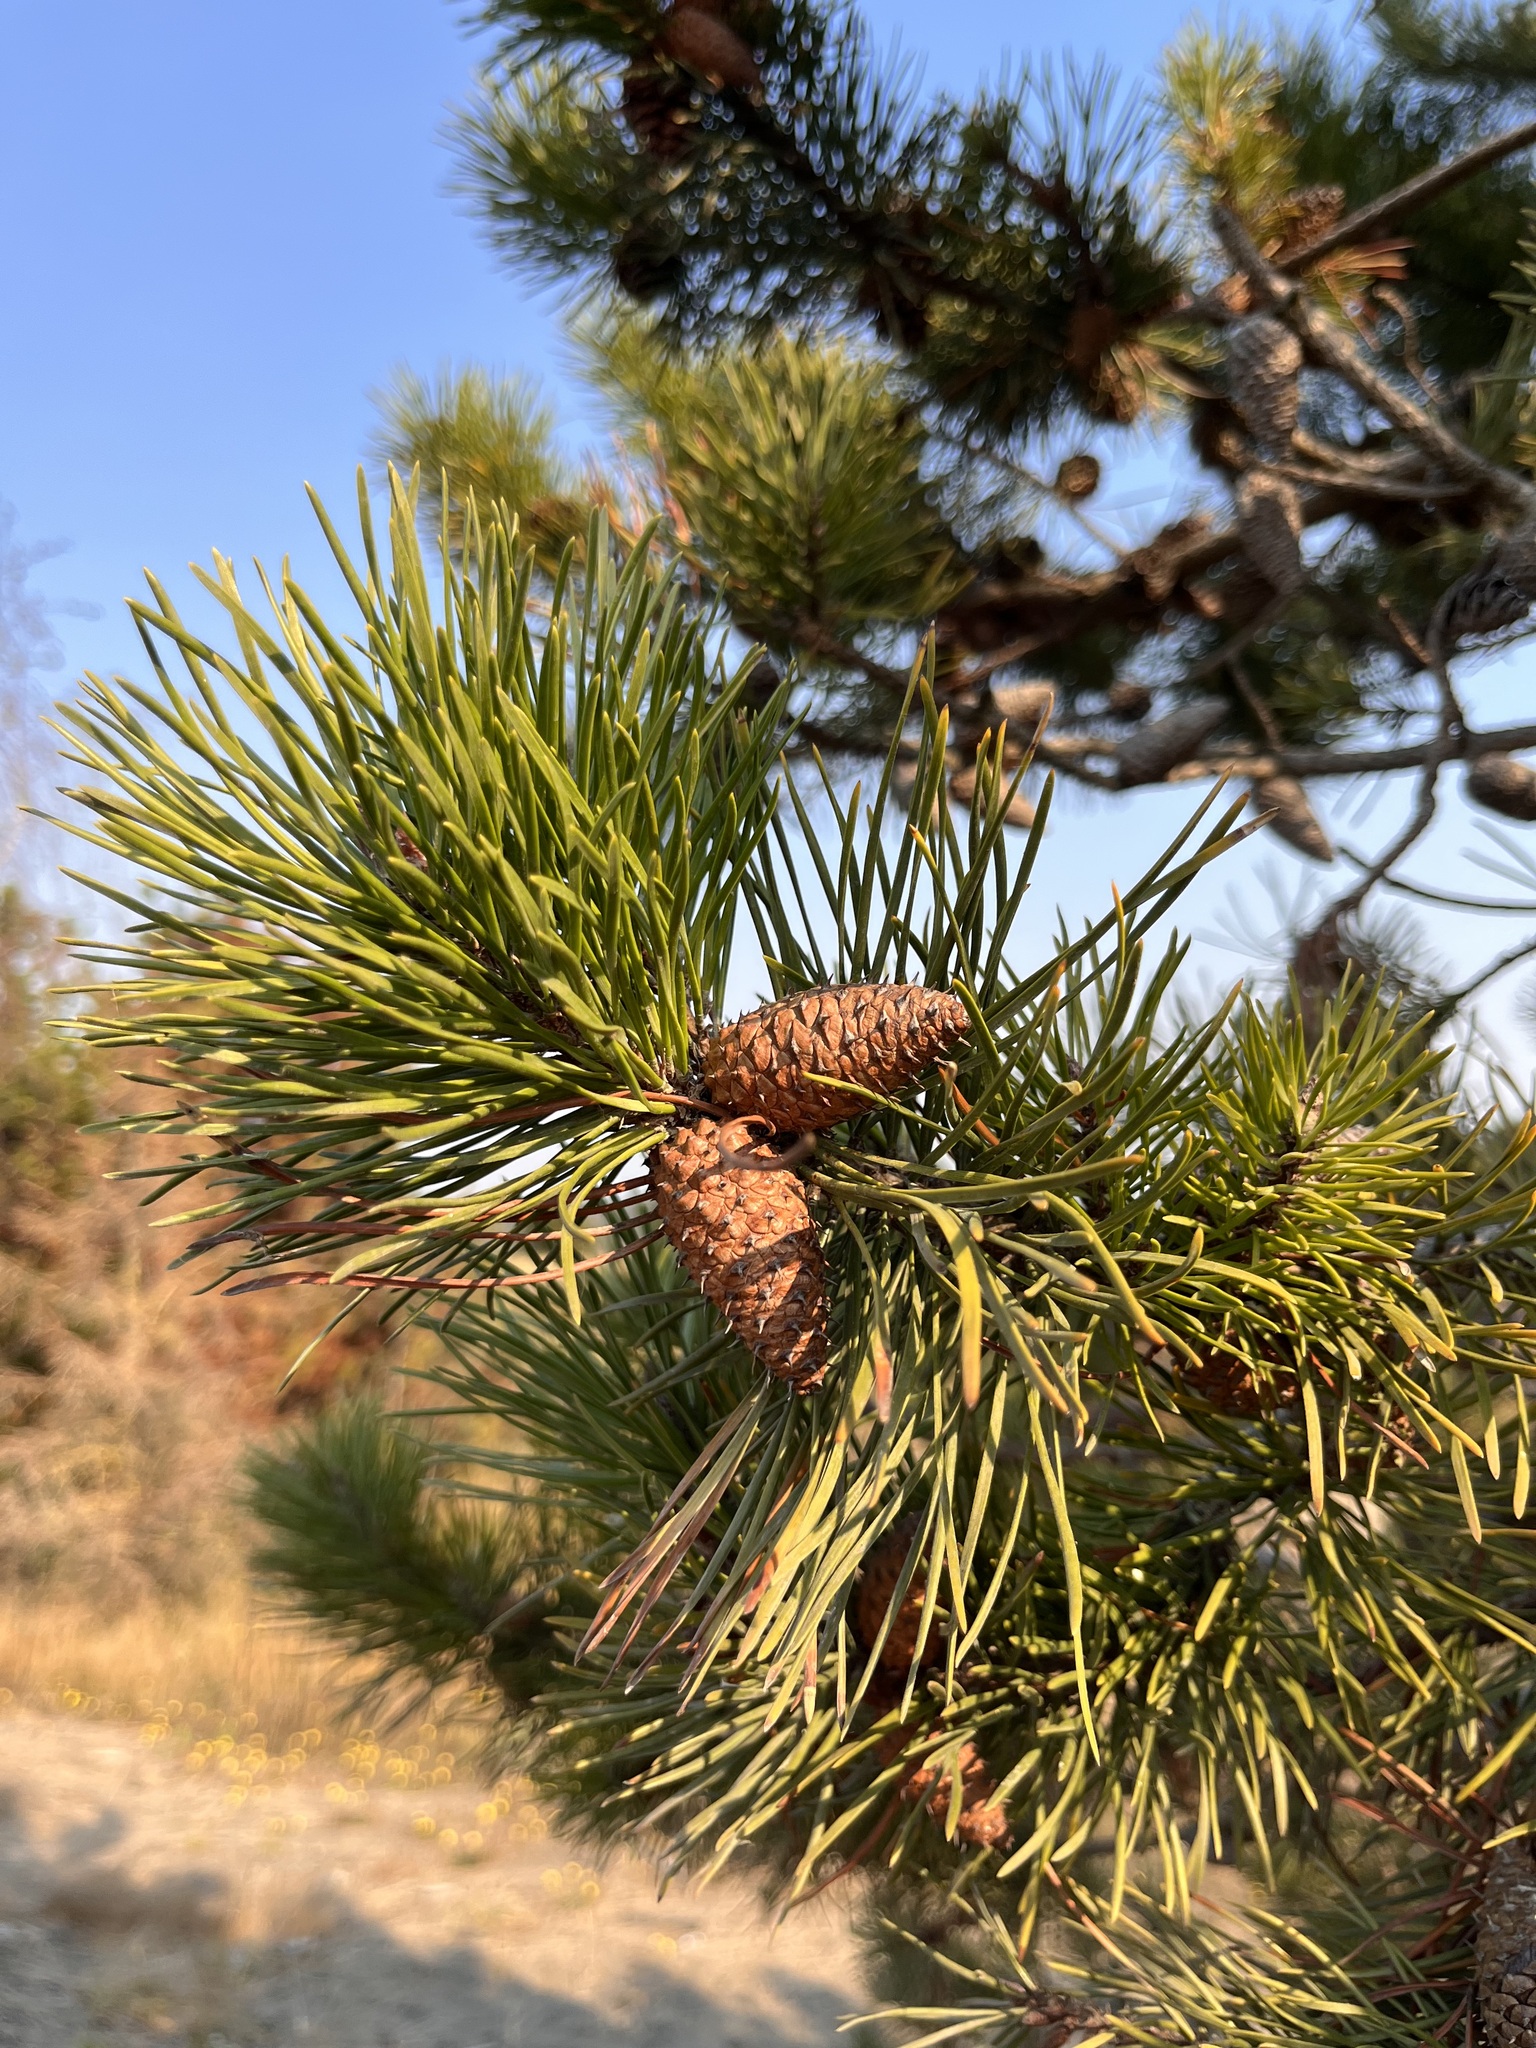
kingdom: Plantae
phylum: Tracheophyta
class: Pinopsida
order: Pinales
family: Pinaceae
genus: Pinus
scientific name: Pinus contorta
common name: Lodgepole pine
